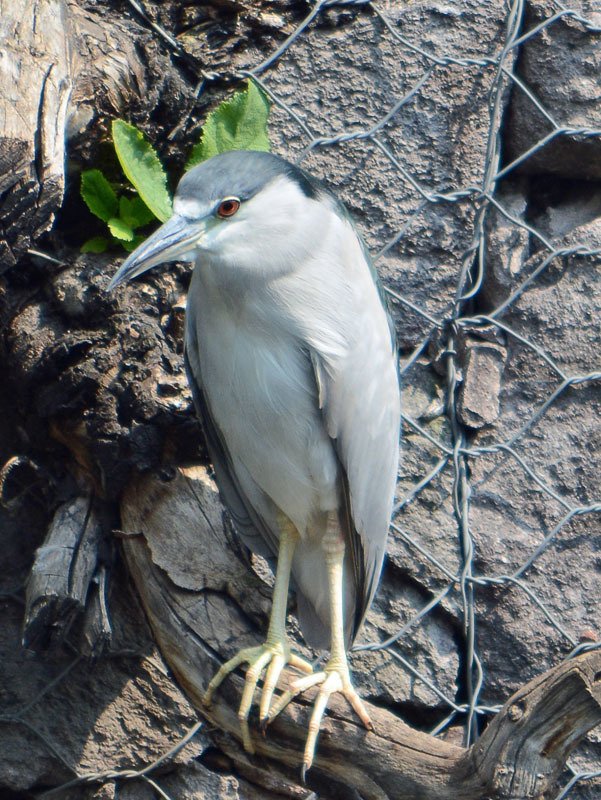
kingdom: Animalia
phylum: Chordata
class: Aves
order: Pelecaniformes
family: Ardeidae
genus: Nycticorax
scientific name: Nycticorax nycticorax
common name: Black-crowned night heron
